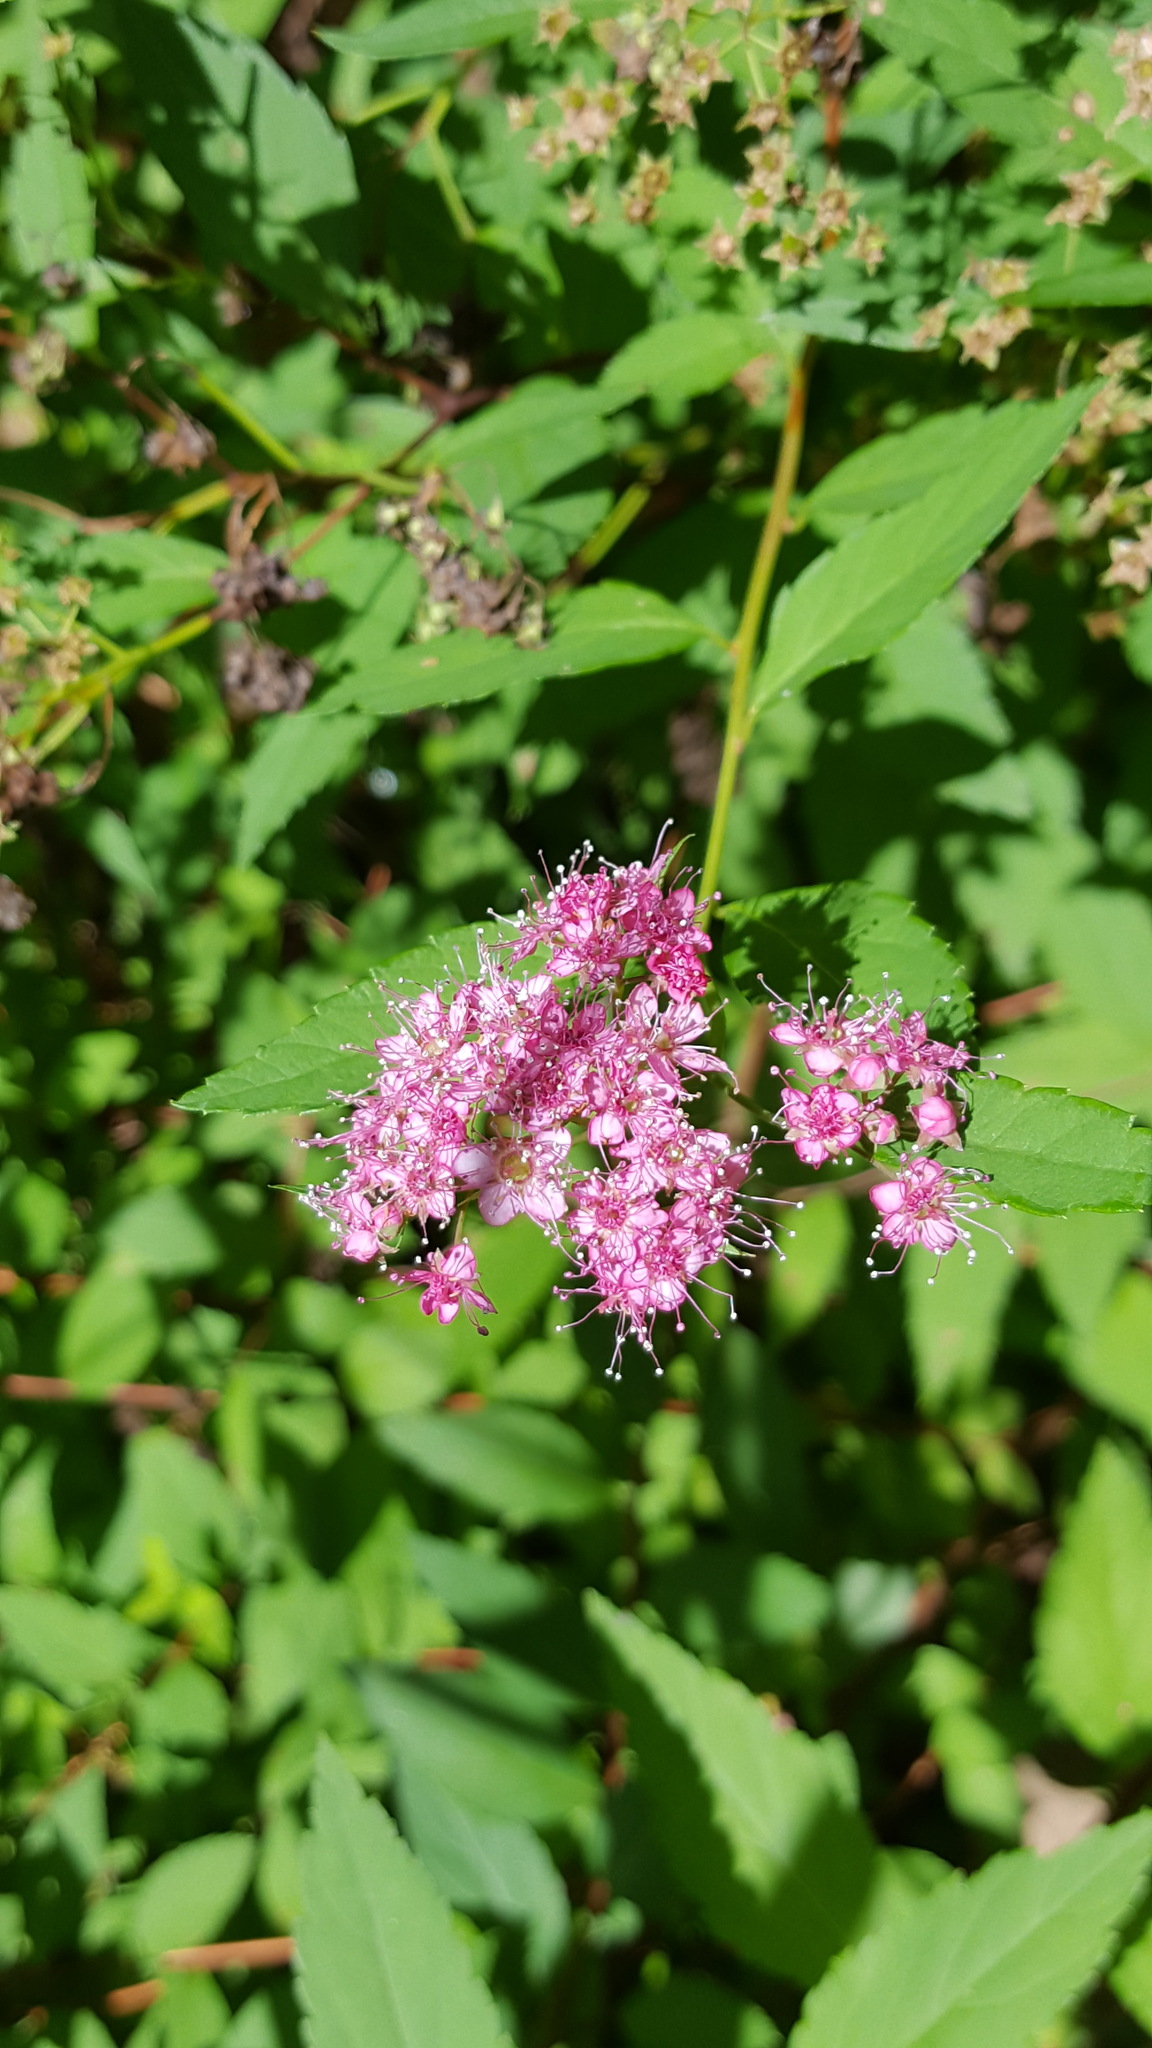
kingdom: Plantae
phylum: Tracheophyta
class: Magnoliopsida
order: Rosales
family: Rosaceae
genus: Spiraea
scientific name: Spiraea japonica
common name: Japanese spiraea
